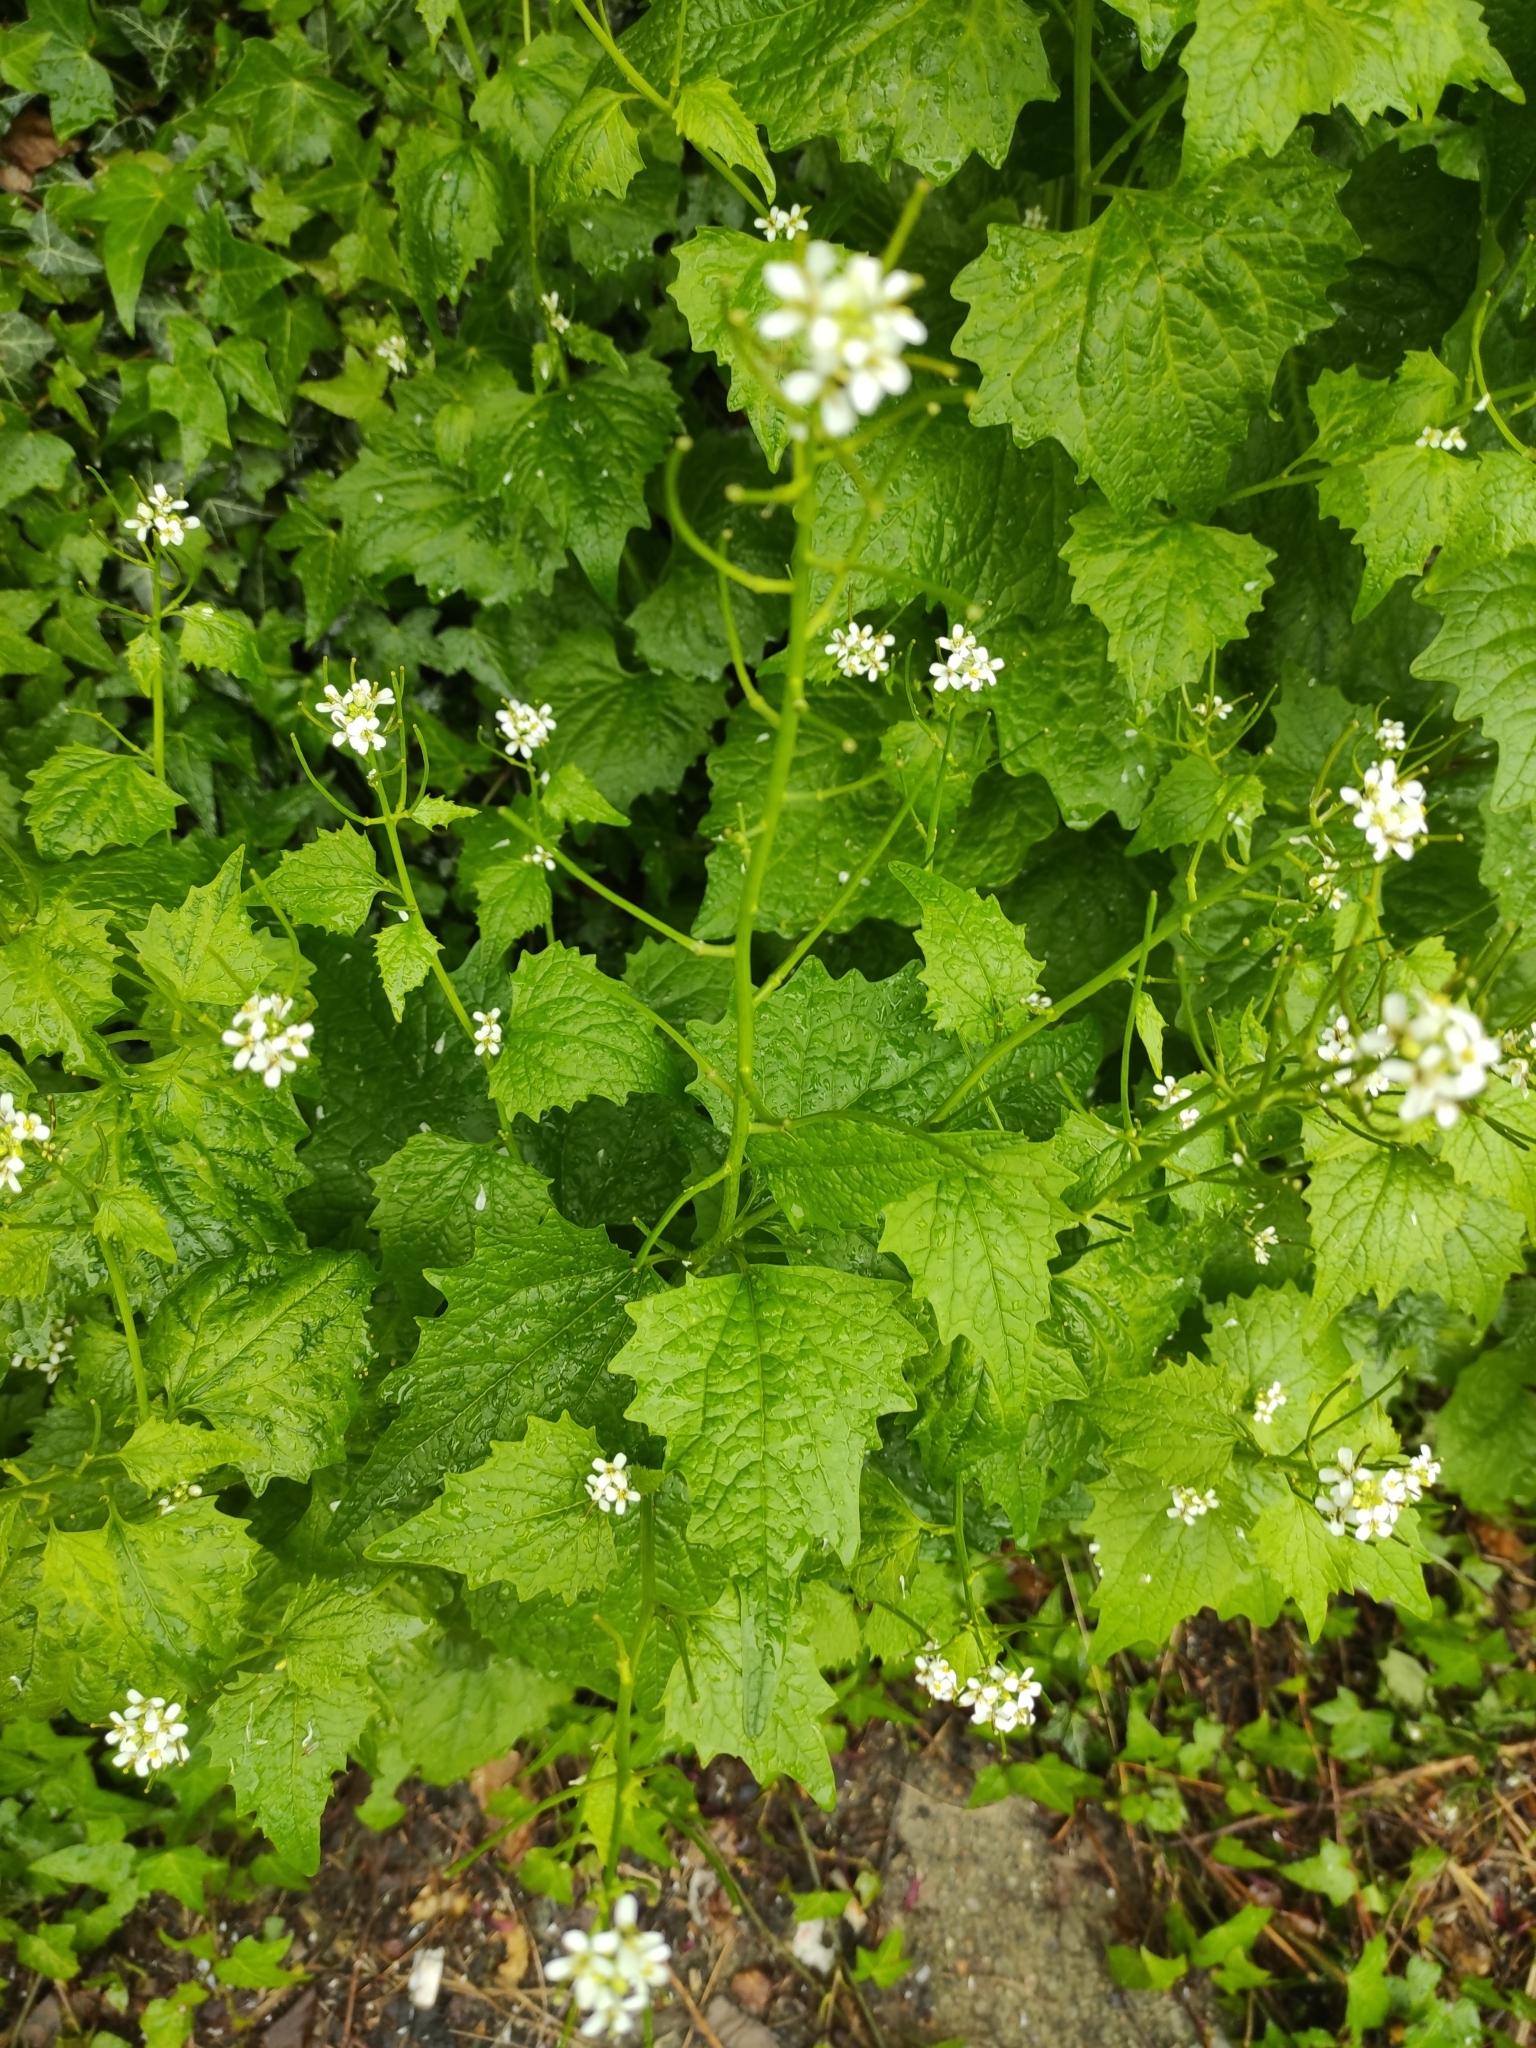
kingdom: Plantae
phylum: Tracheophyta
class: Magnoliopsida
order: Brassicales
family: Brassicaceae
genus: Alliaria
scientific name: Alliaria petiolata
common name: Garlic mustard
